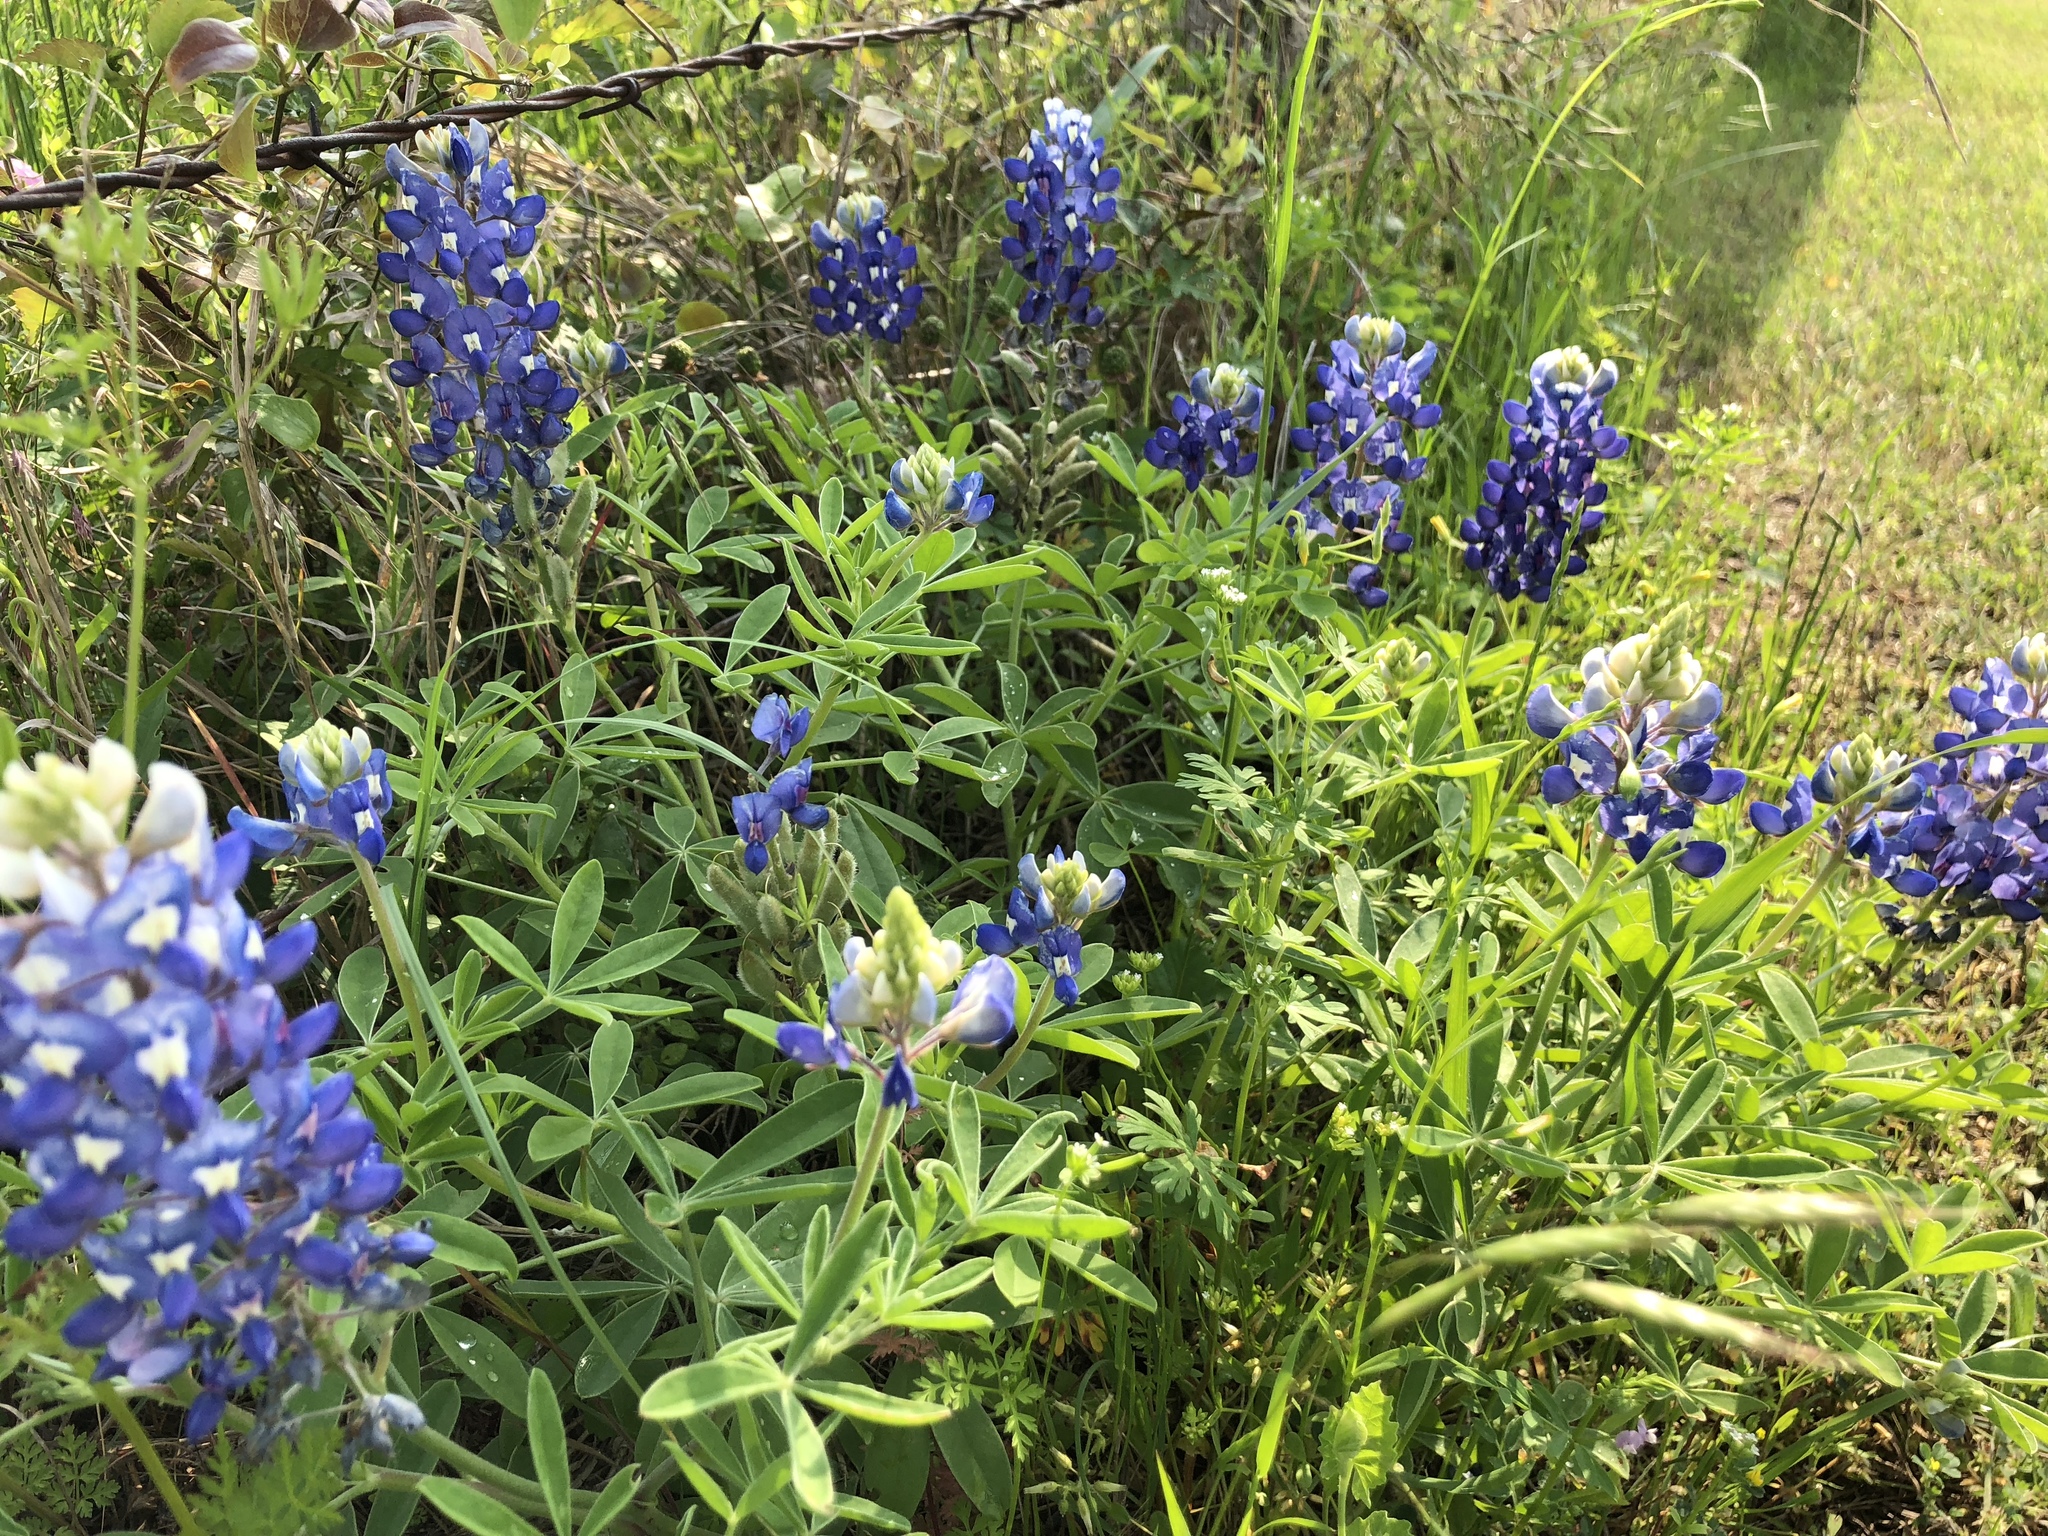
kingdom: Plantae
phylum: Tracheophyta
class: Magnoliopsida
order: Fabales
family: Fabaceae
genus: Lupinus
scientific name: Lupinus texensis
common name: Texas bluebonnet
